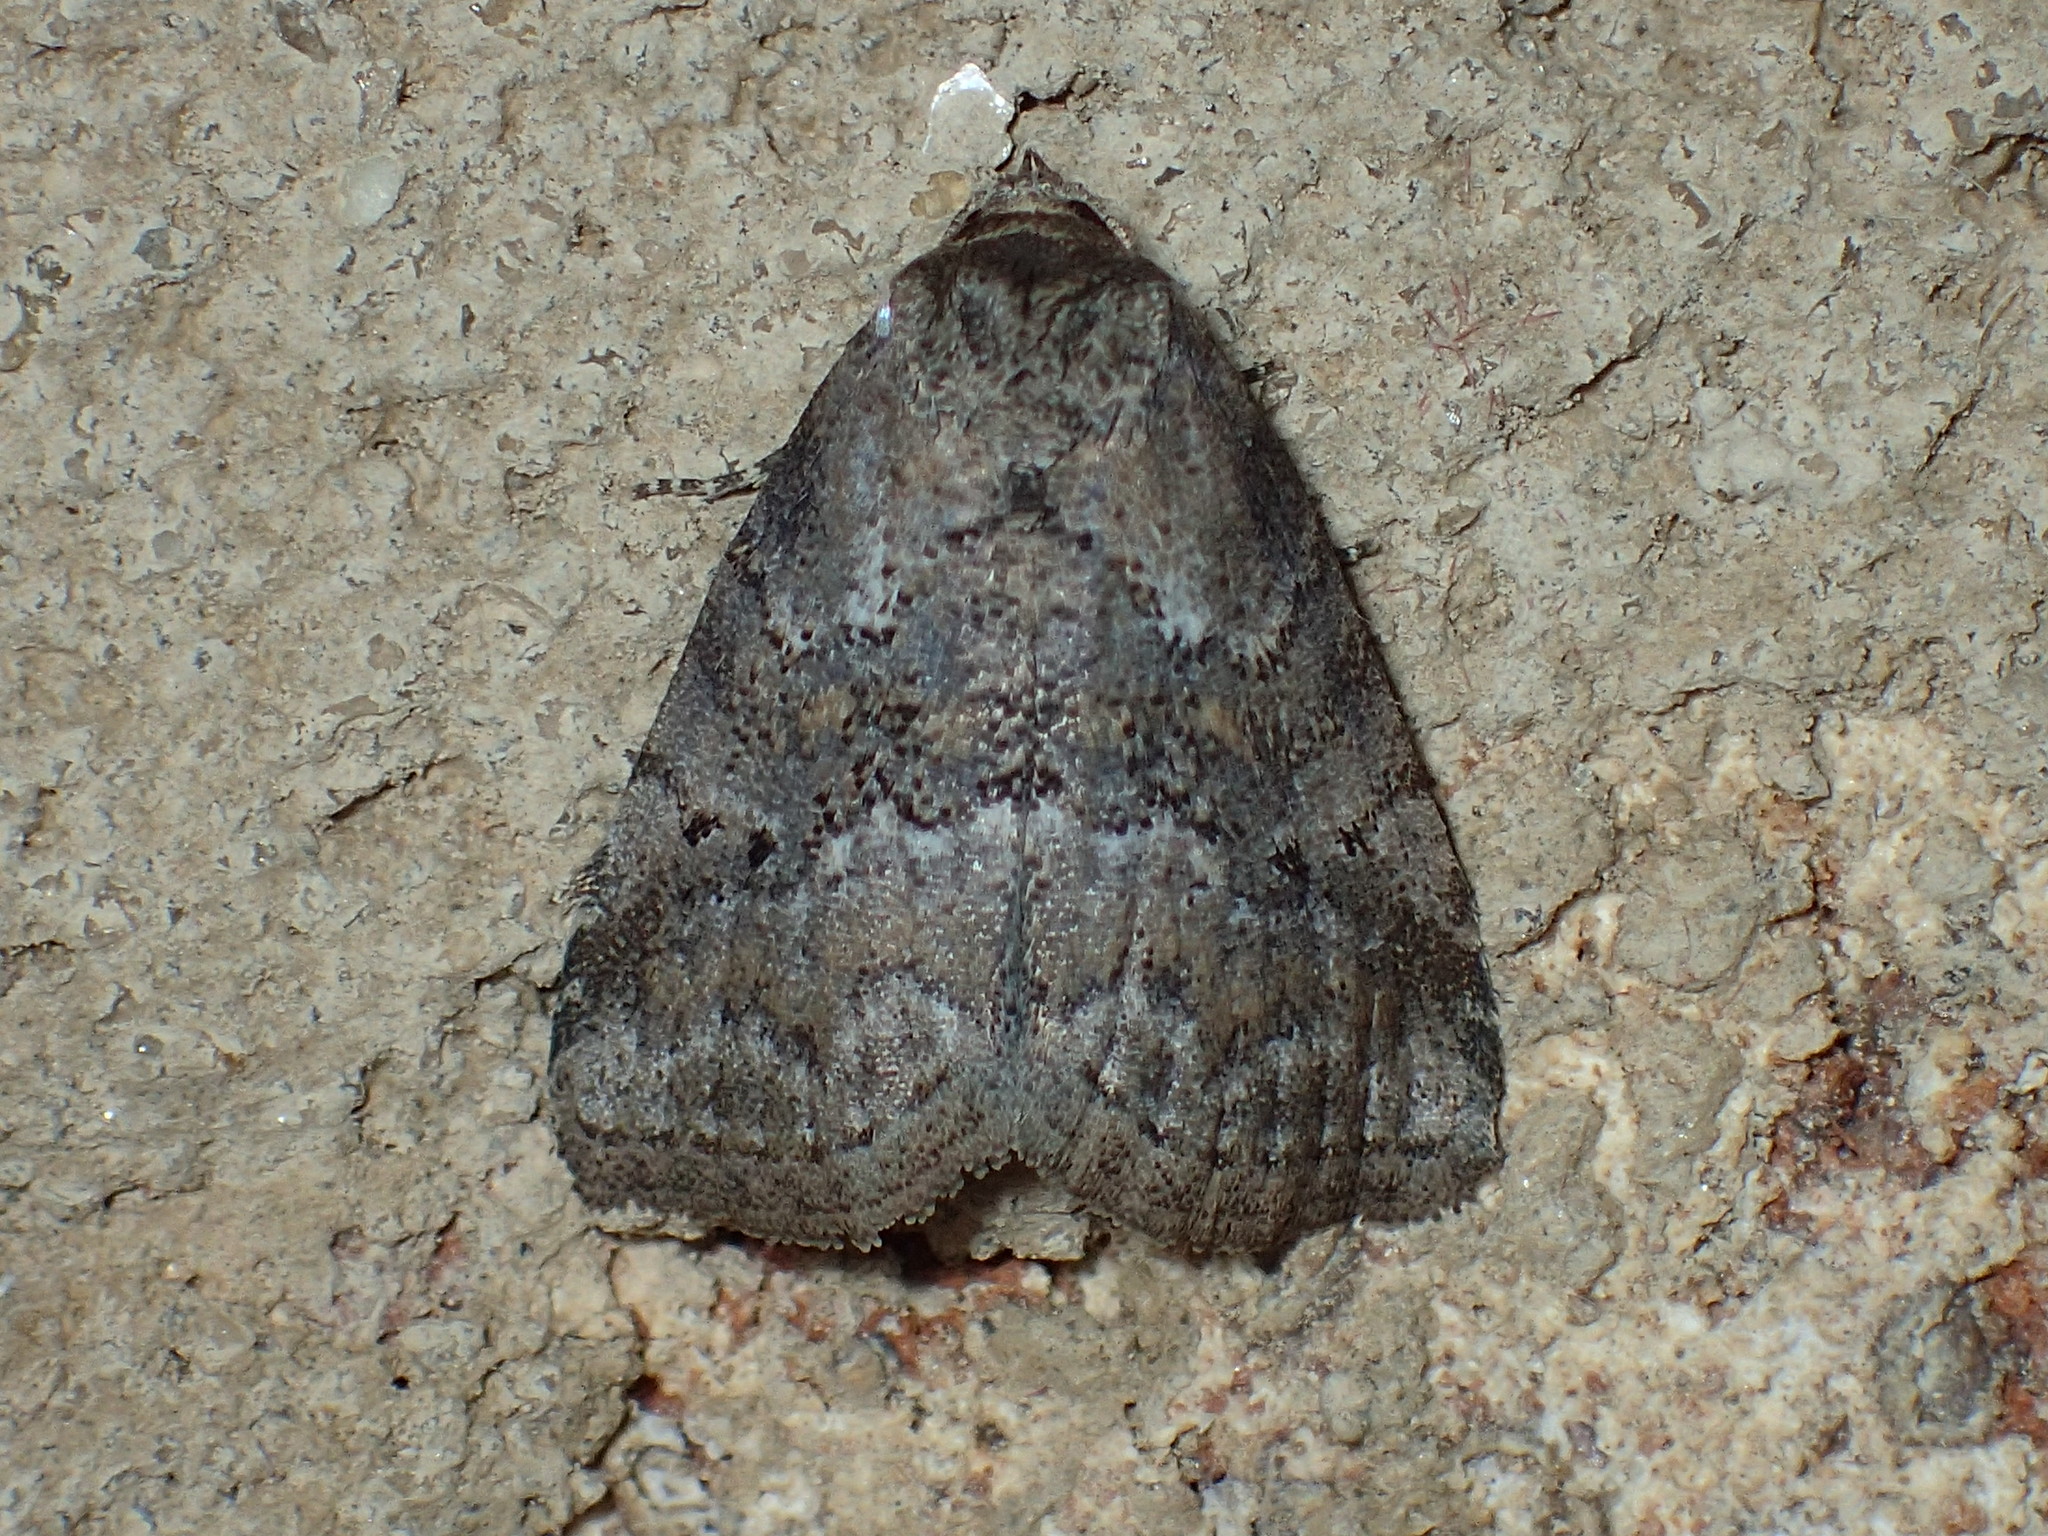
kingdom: Animalia
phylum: Arthropoda
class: Insecta
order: Lepidoptera
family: Erebidae
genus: Hyperstrotia
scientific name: Hyperstrotia nana
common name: White-lined graylet
